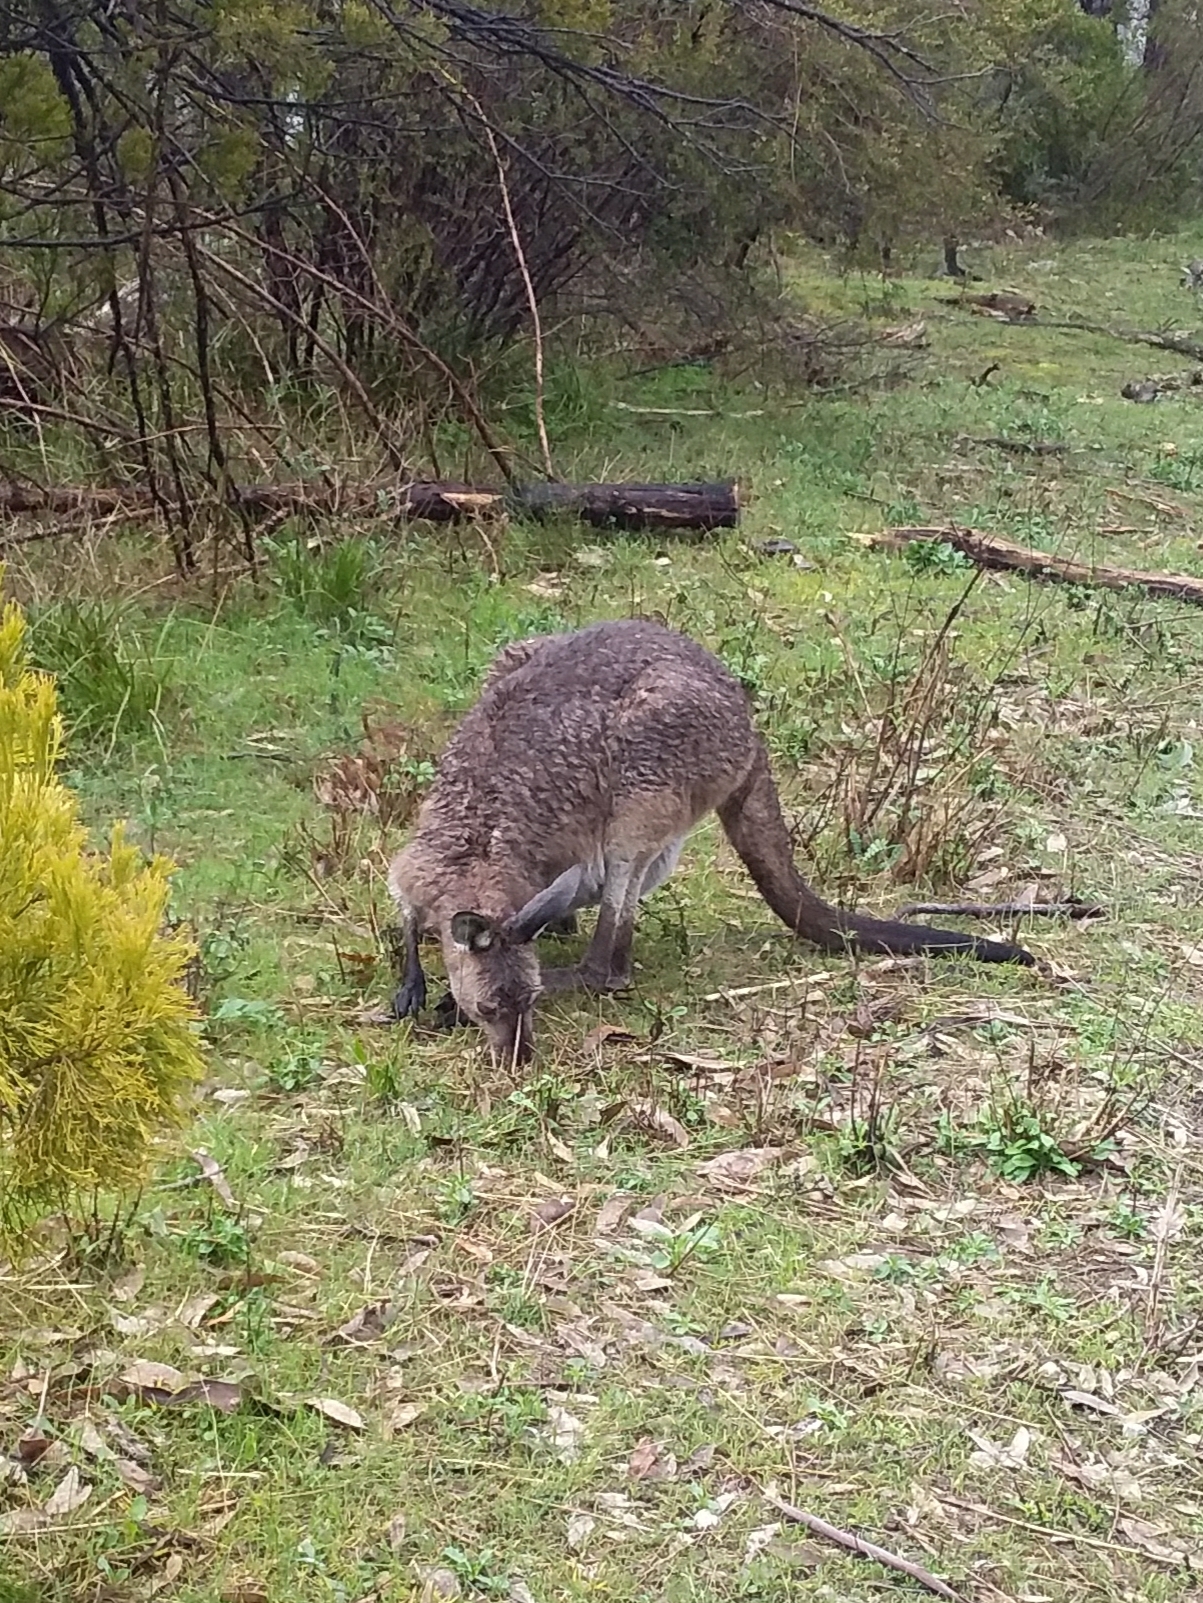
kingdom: Animalia
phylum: Chordata
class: Mammalia
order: Diprotodontia
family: Macropodidae
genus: Macropus
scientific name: Macropus fuliginosus
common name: Western grey kangaroo
